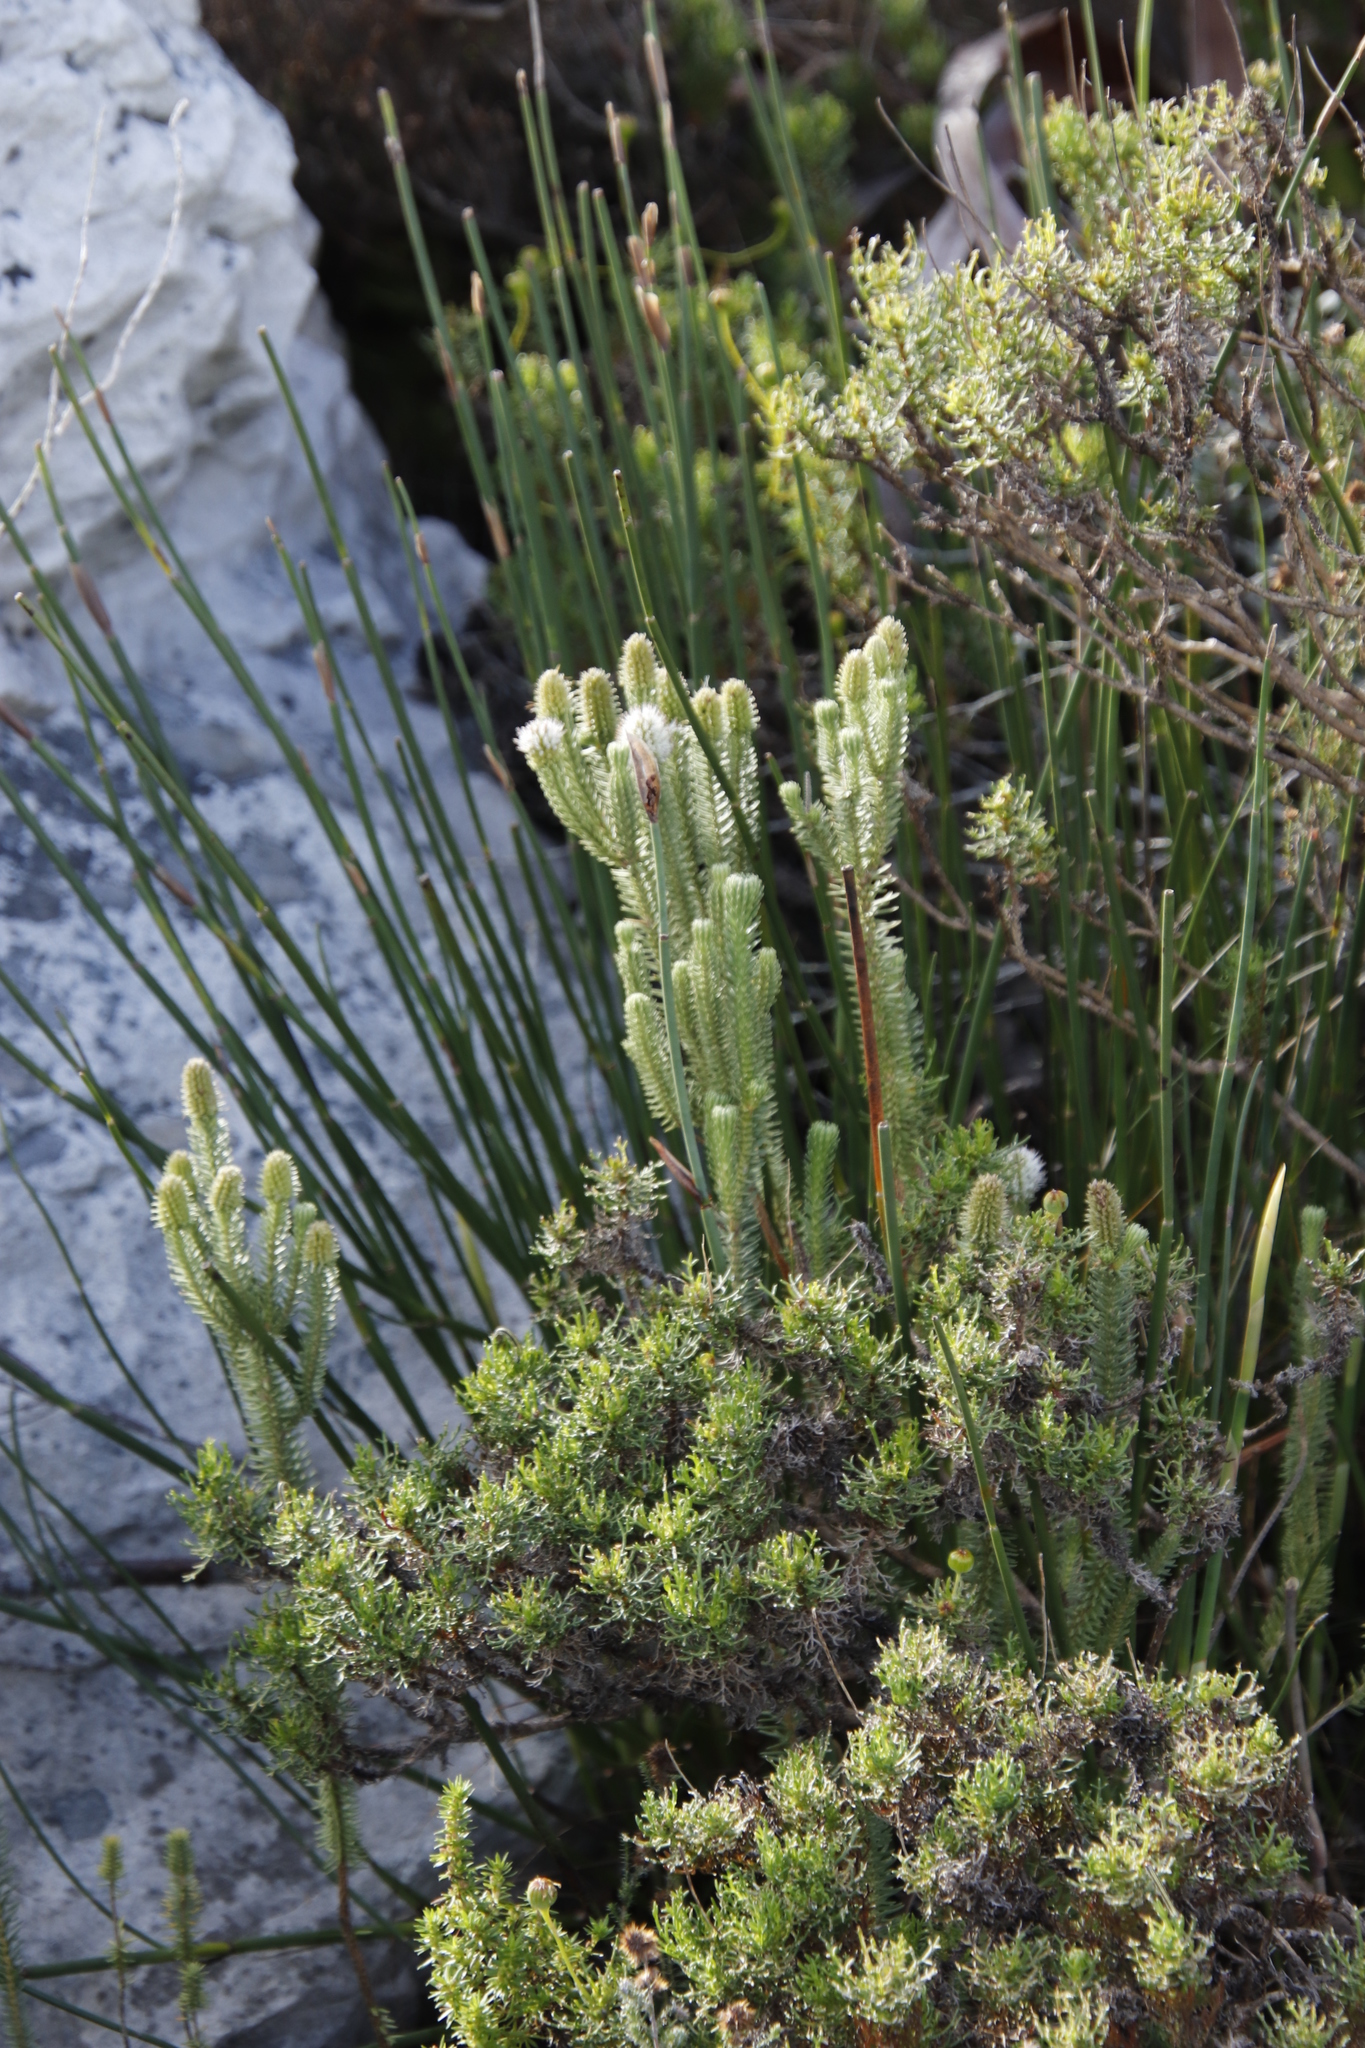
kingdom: Plantae
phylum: Tracheophyta
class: Magnoliopsida
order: Lamiales
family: Stilbaceae
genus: Stilbe
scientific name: Stilbe vestita
